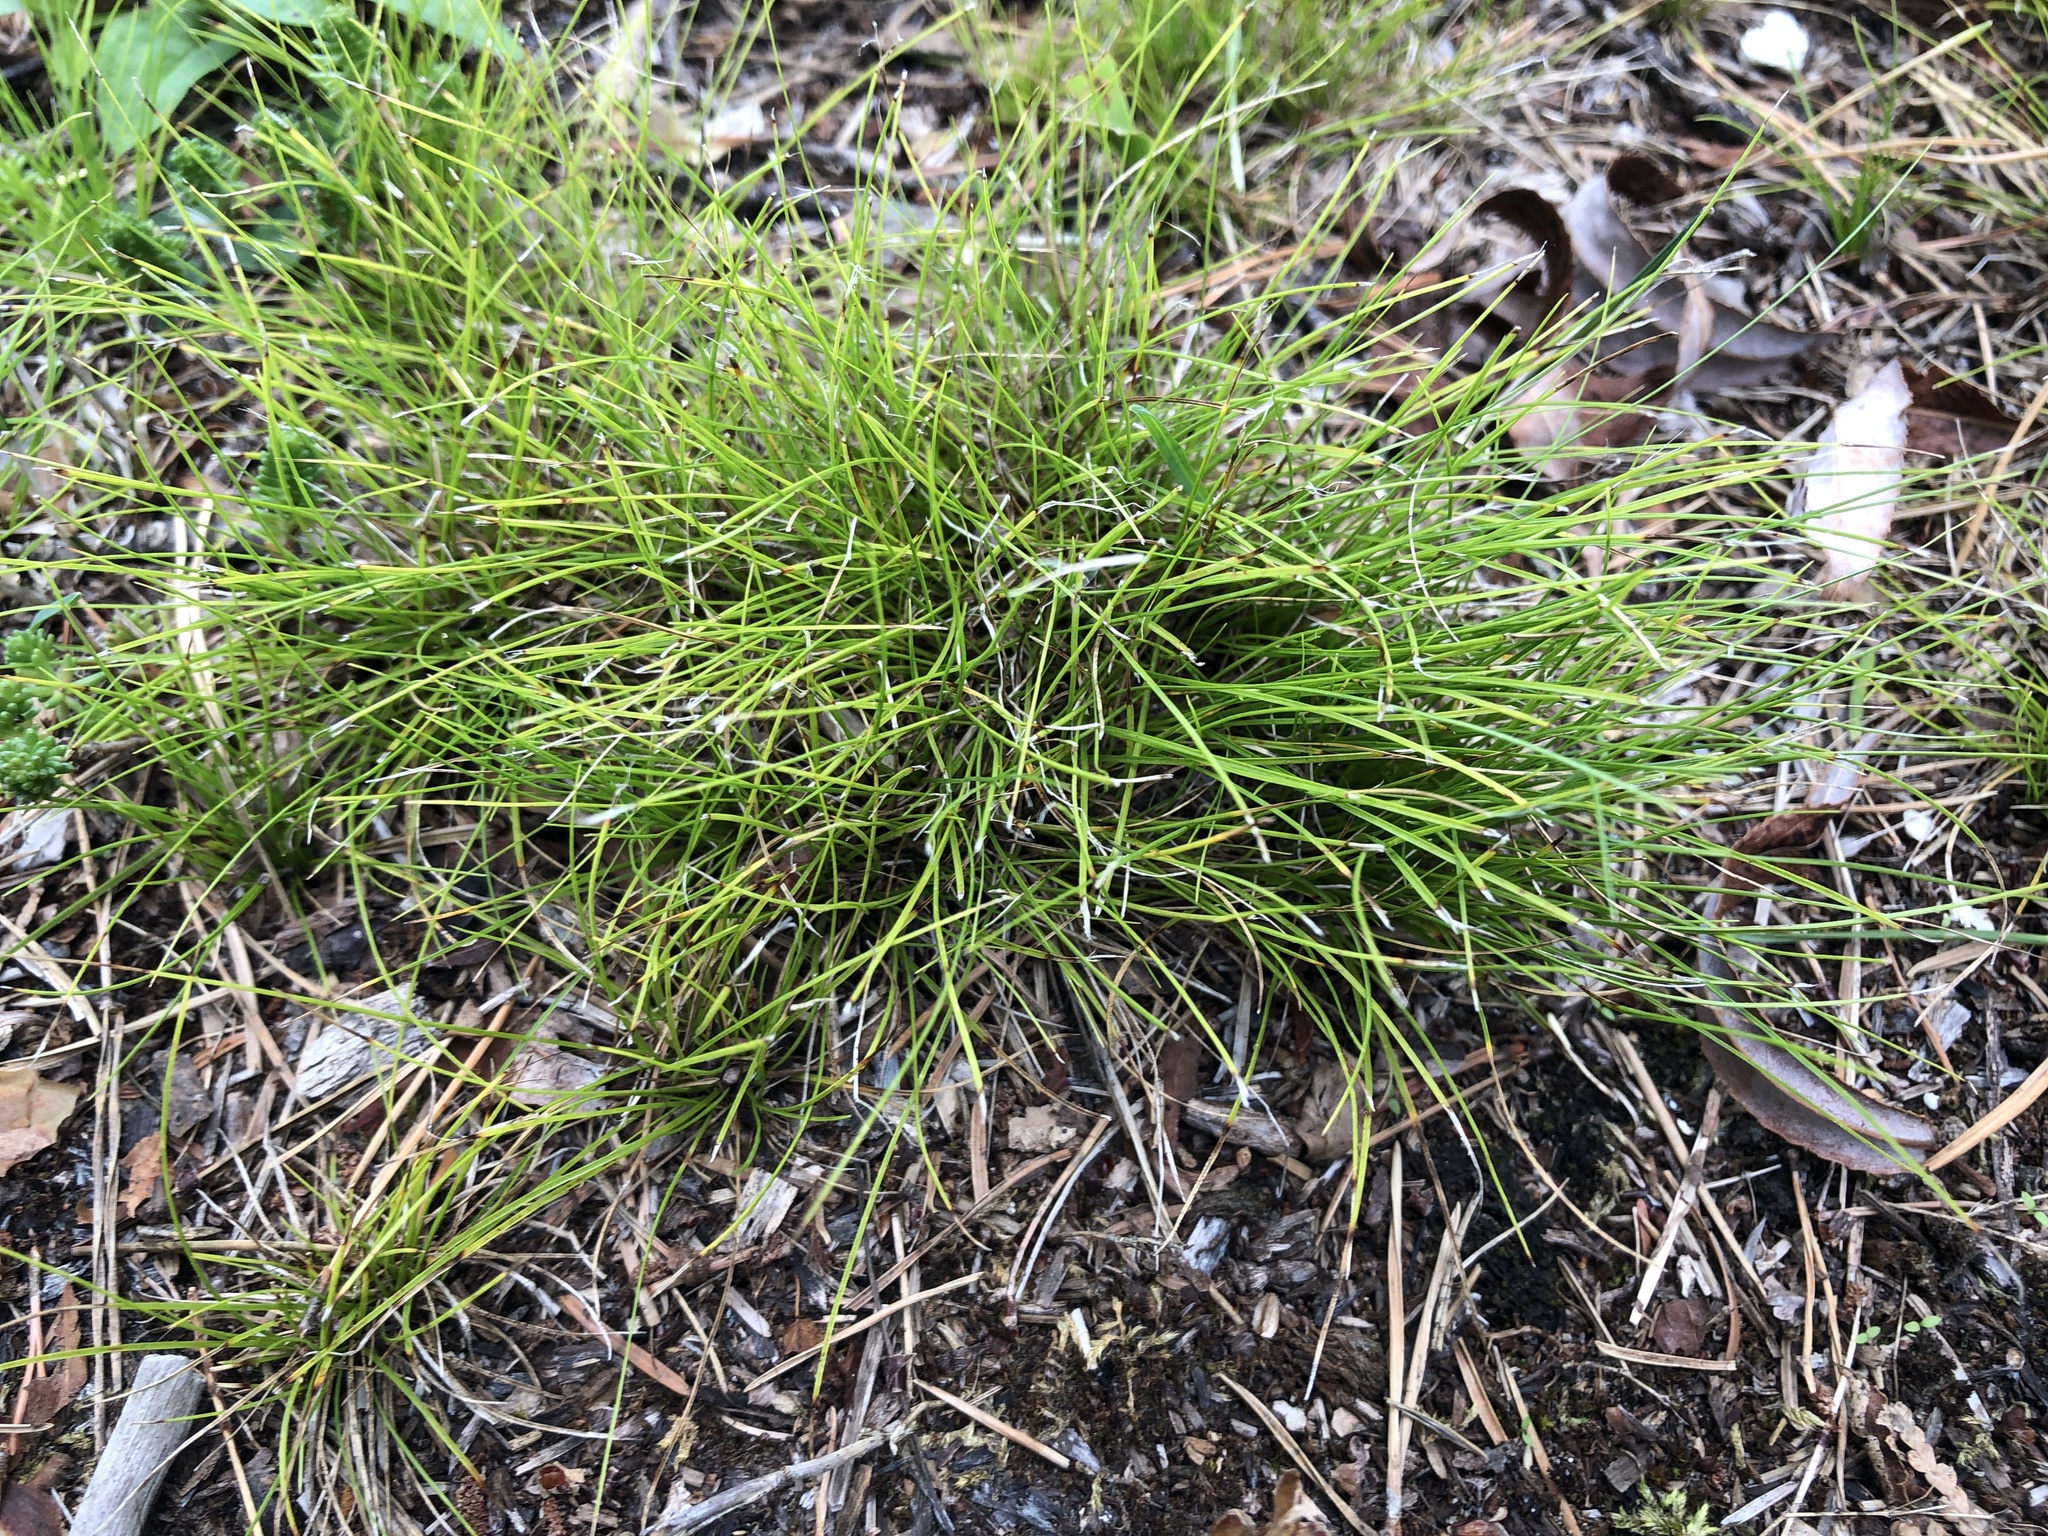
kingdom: Plantae
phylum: Tracheophyta
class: Liliopsida
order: Poales
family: Cyperaceae
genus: Carex
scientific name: Carex eburnea
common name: Bristle-leaved sedge
